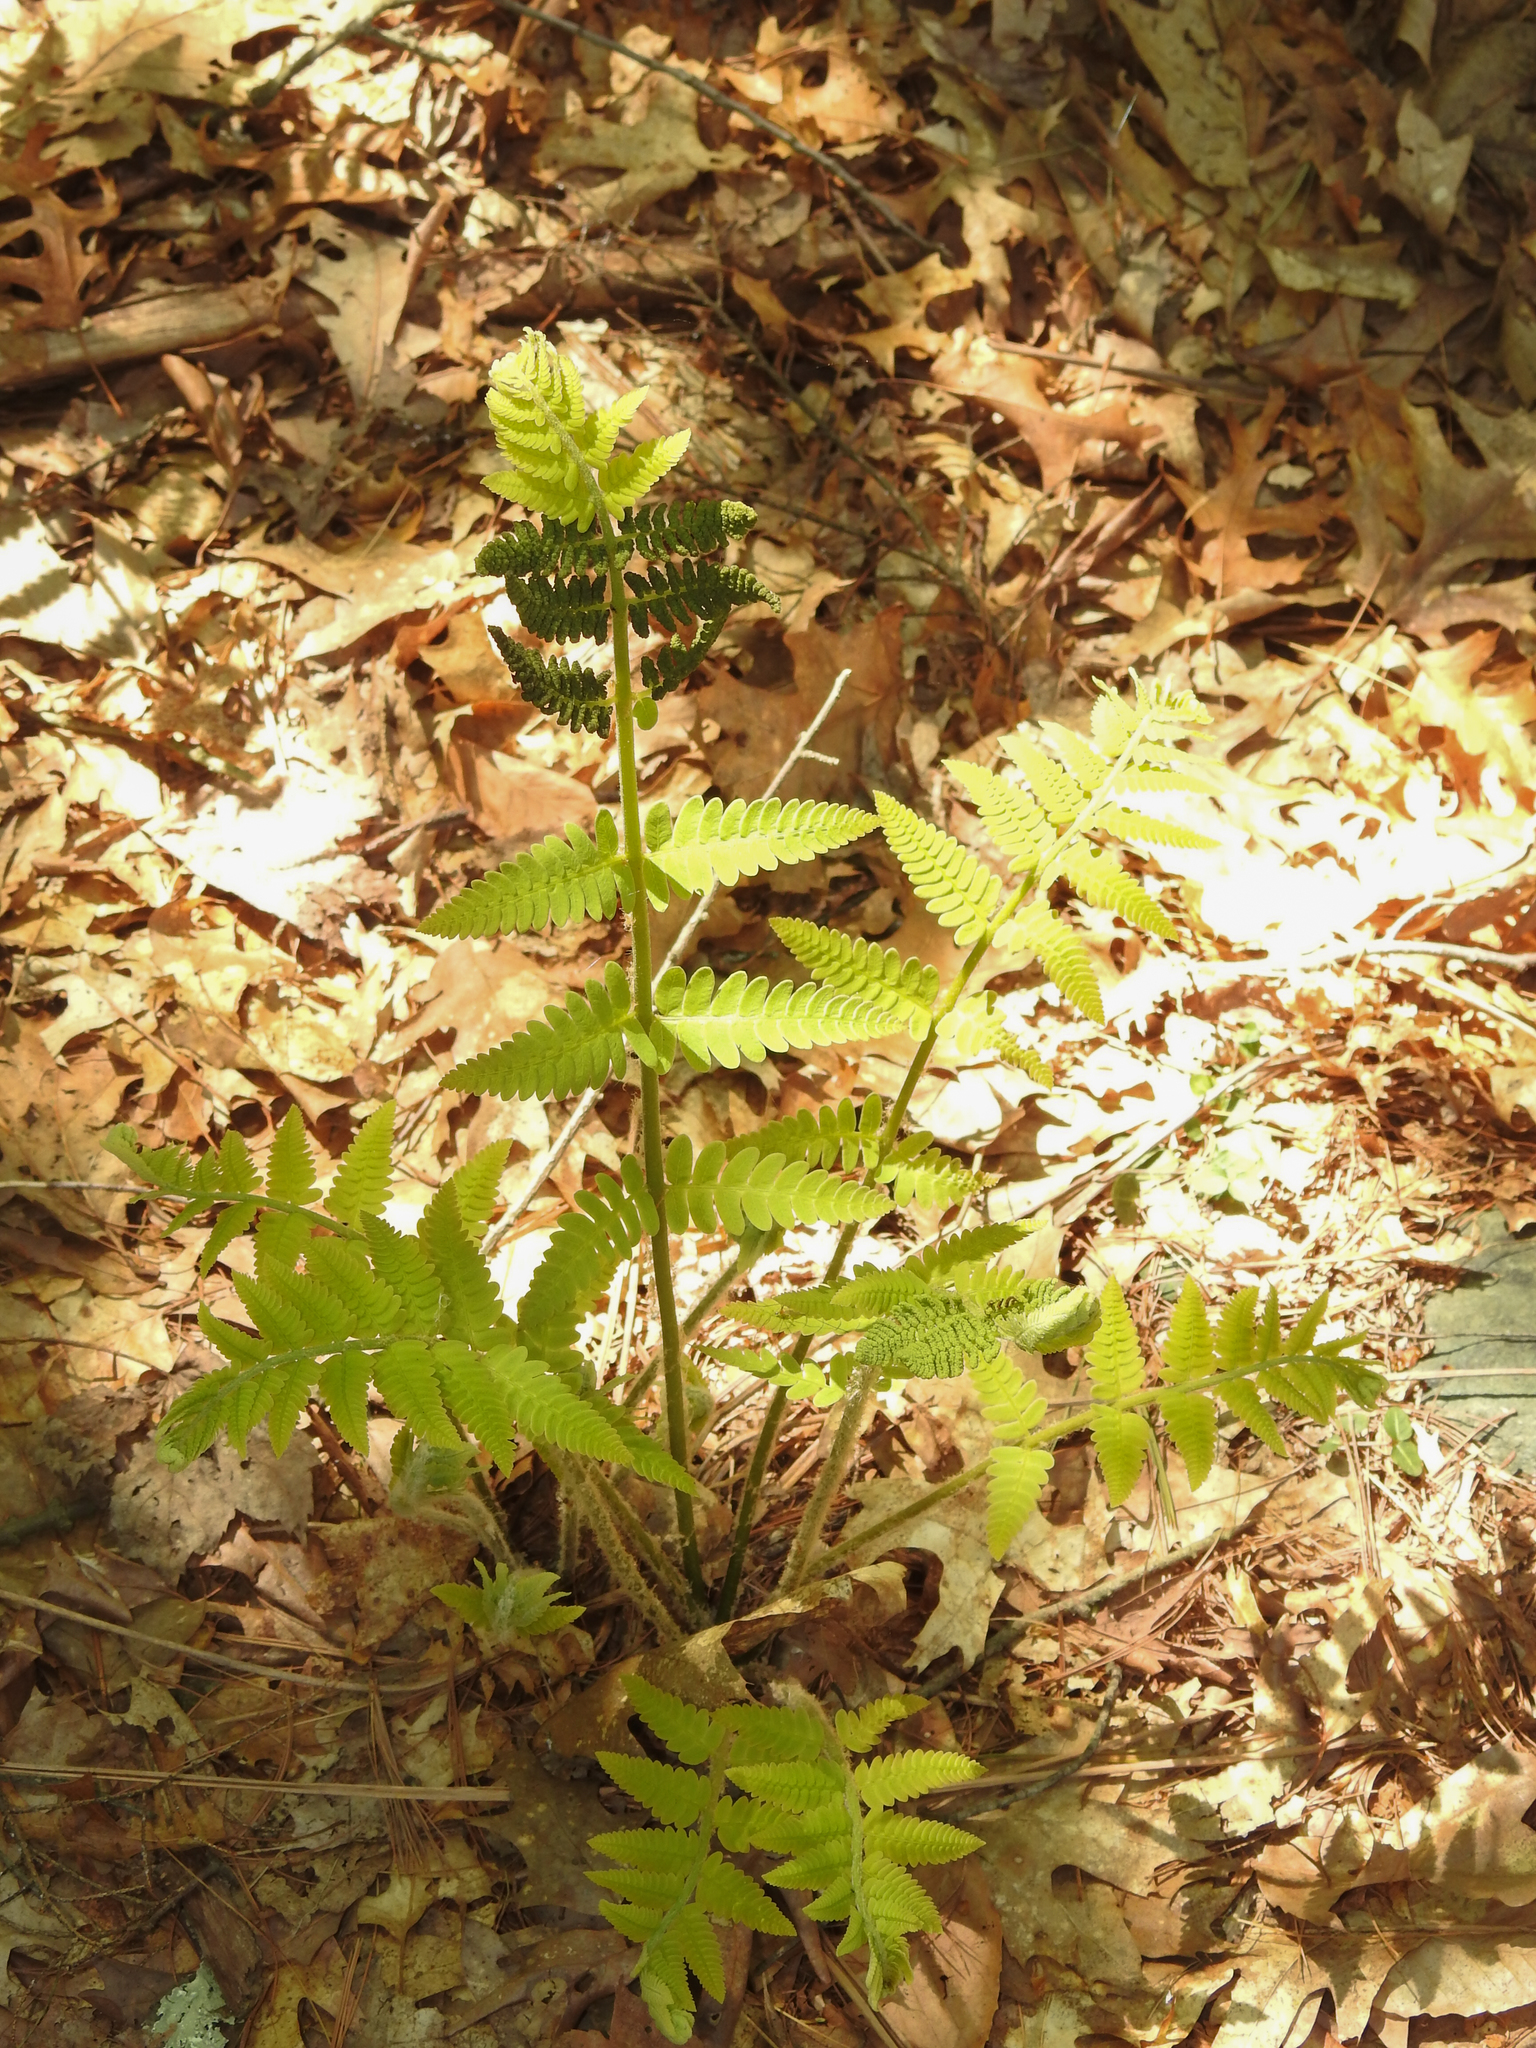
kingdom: Plantae
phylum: Tracheophyta
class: Polypodiopsida
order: Osmundales
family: Osmundaceae
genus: Claytosmunda
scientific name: Claytosmunda claytoniana
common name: Clayton's fern
